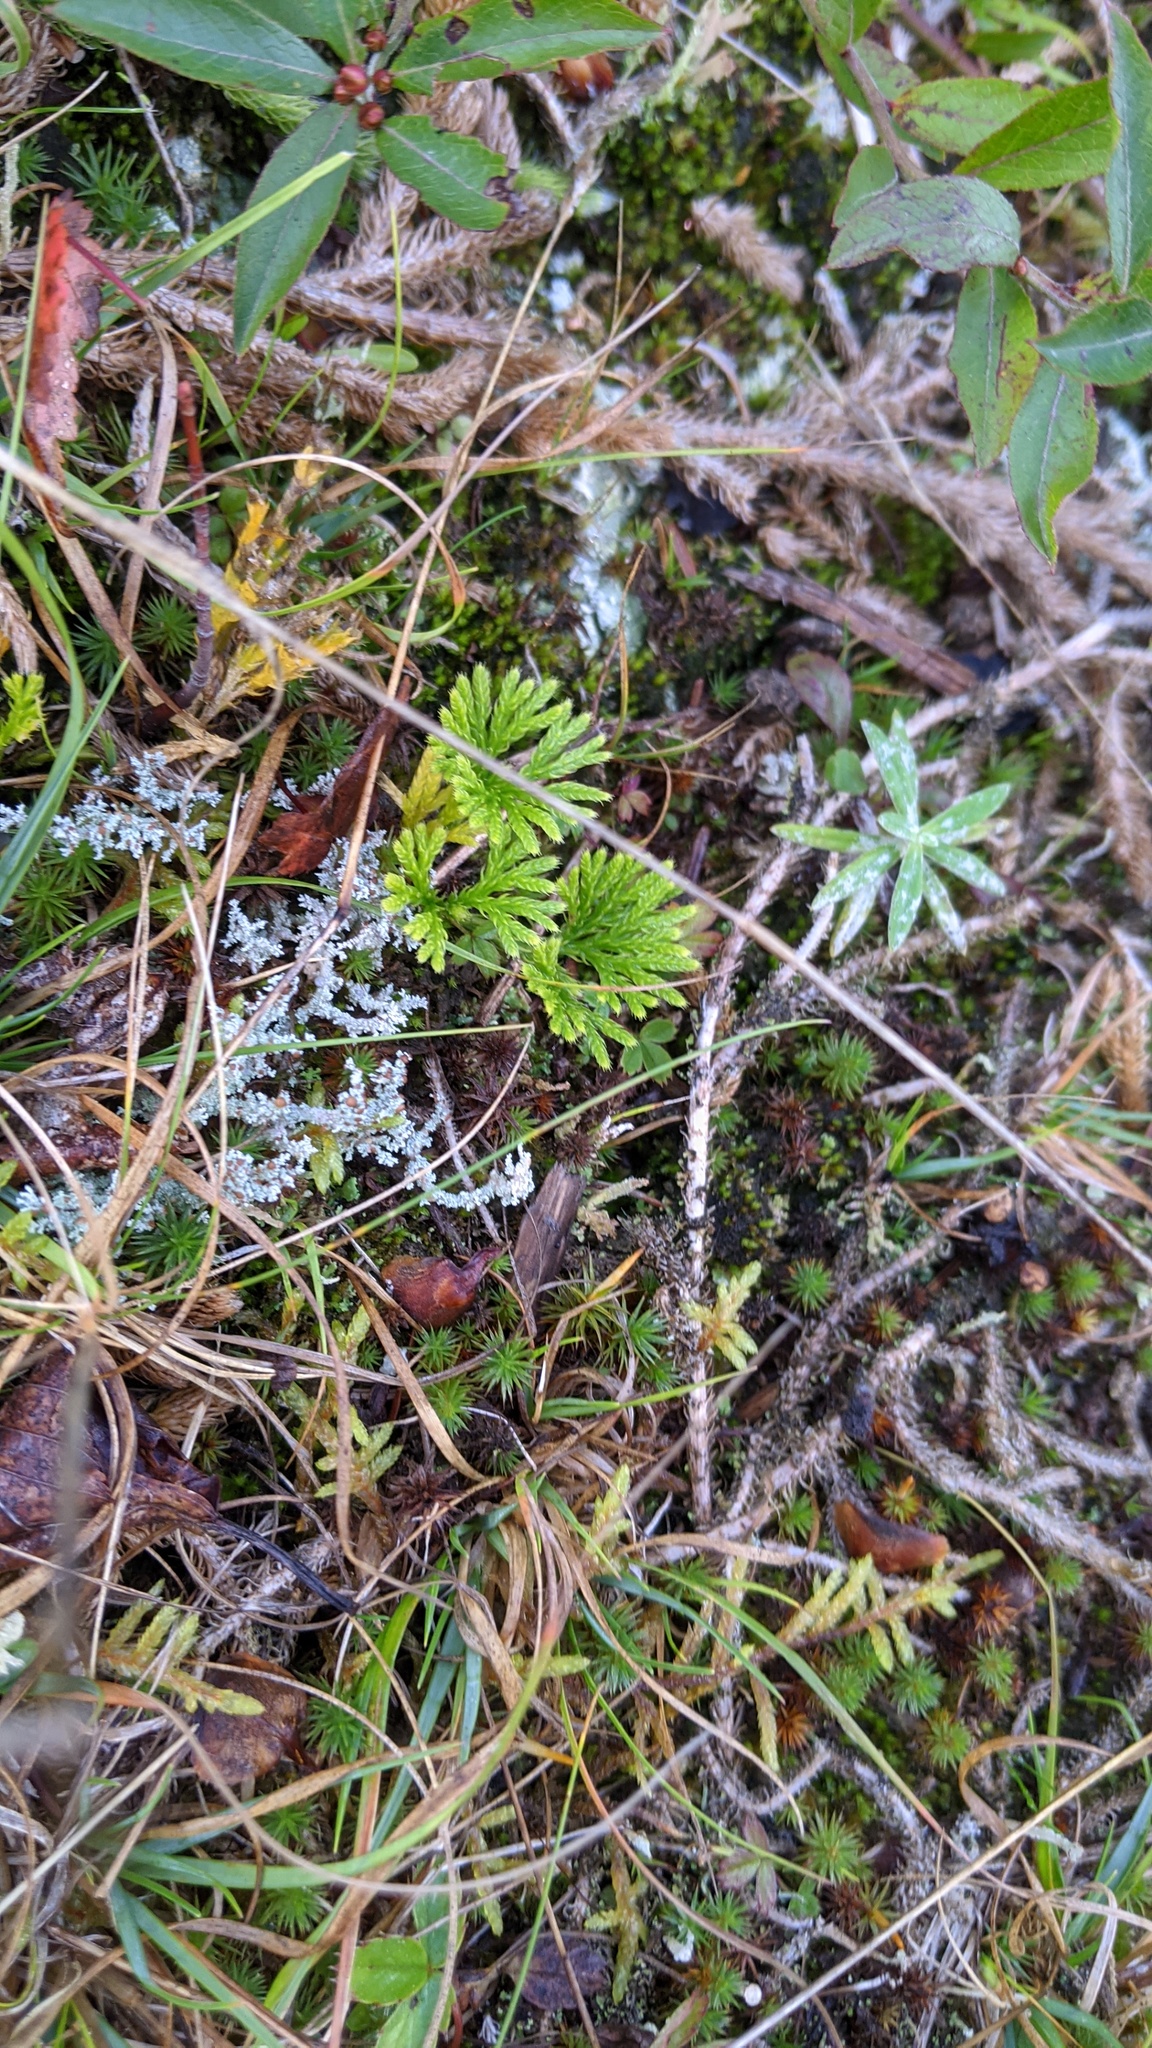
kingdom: Plantae
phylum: Tracheophyta
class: Lycopodiopsida
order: Lycopodiales
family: Lycopodiaceae
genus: Diphasiastrum
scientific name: Diphasiastrum digitatum
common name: Southern running-pine
